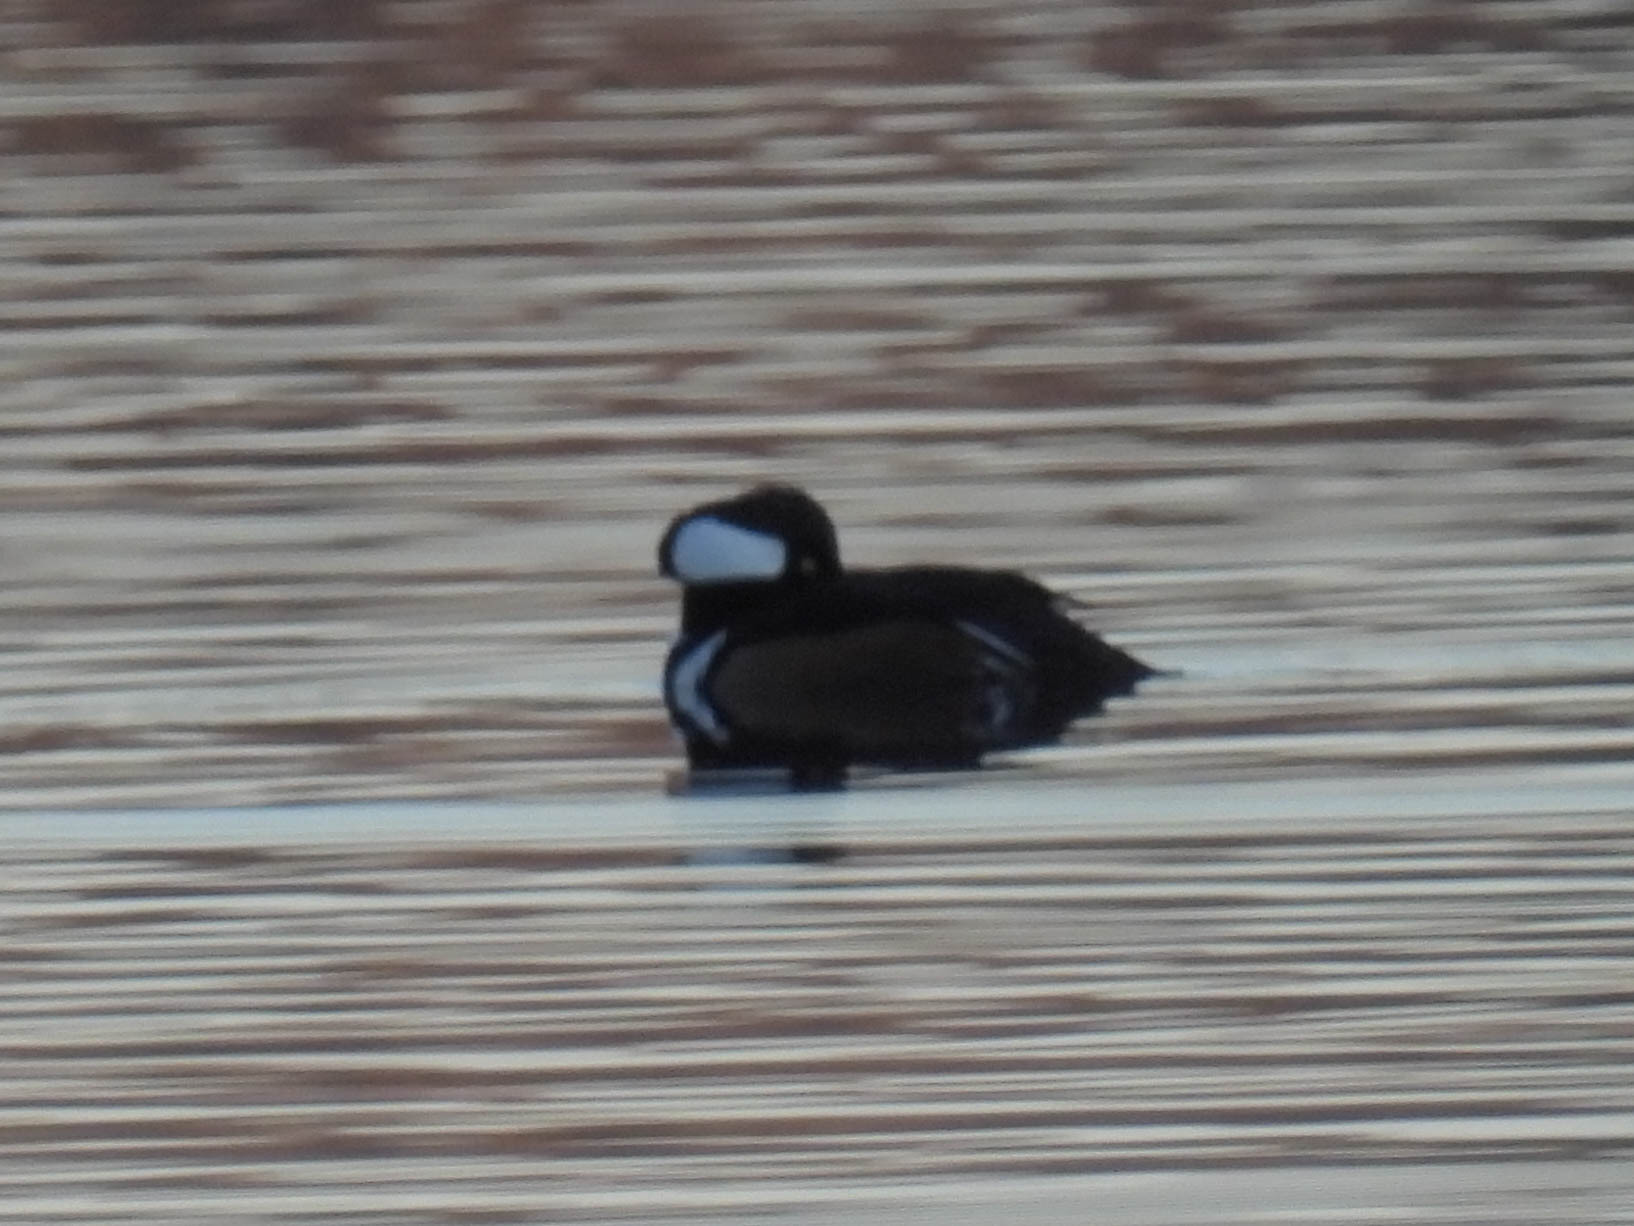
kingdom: Animalia
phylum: Chordata
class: Aves
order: Anseriformes
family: Anatidae
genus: Lophodytes
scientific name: Lophodytes cucullatus
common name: Hooded merganser
